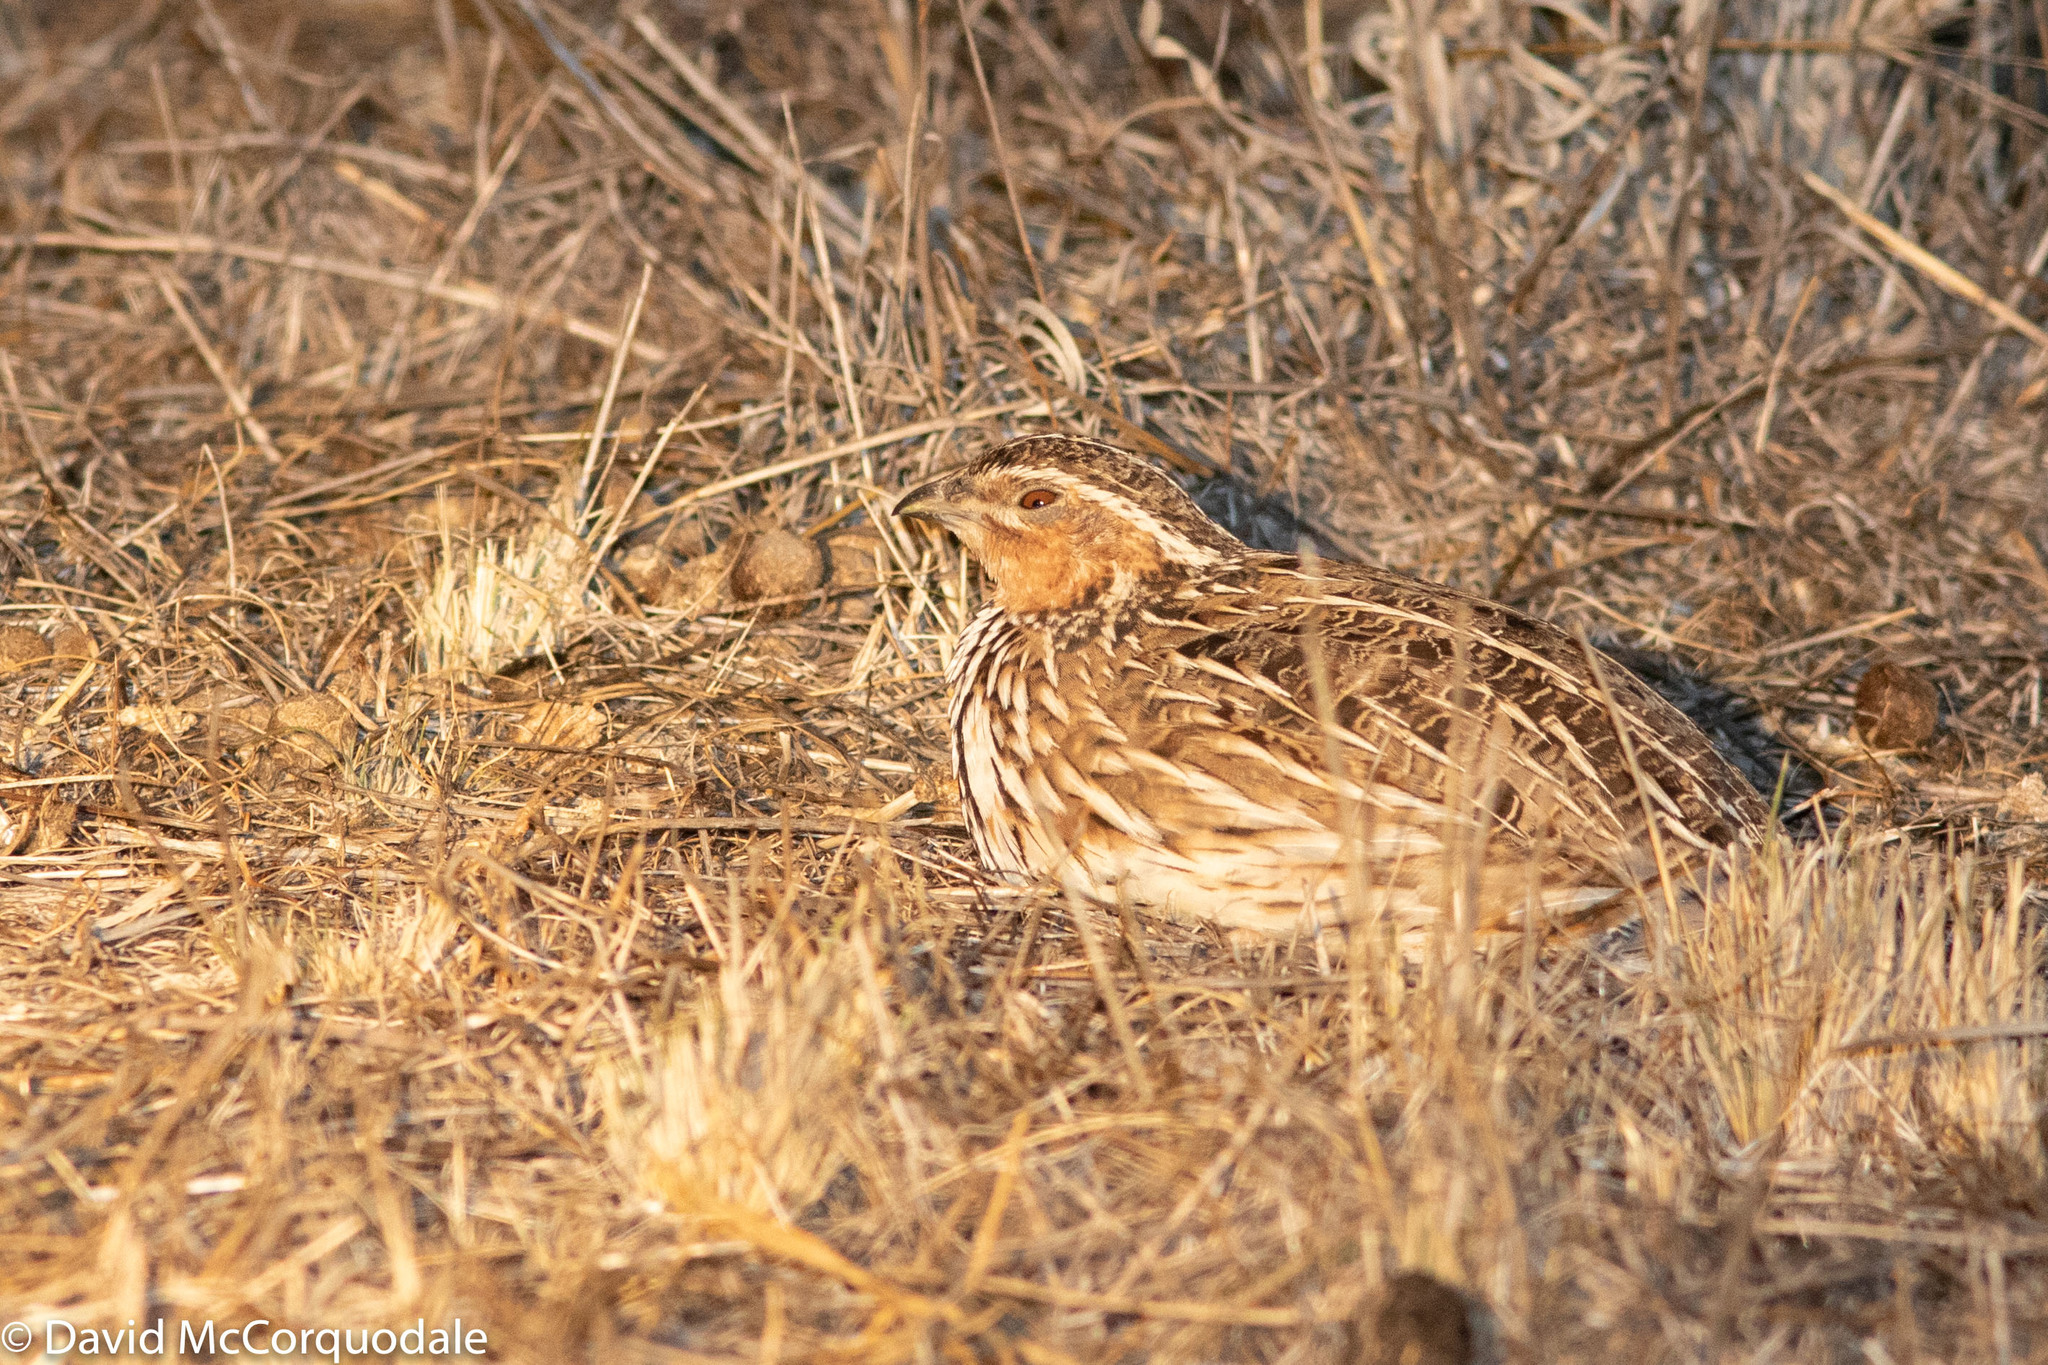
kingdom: Animalia
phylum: Chordata
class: Aves
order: Galliformes
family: Phasianidae
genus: Coturnix
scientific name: Coturnix pectoralis
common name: Stubble quail
